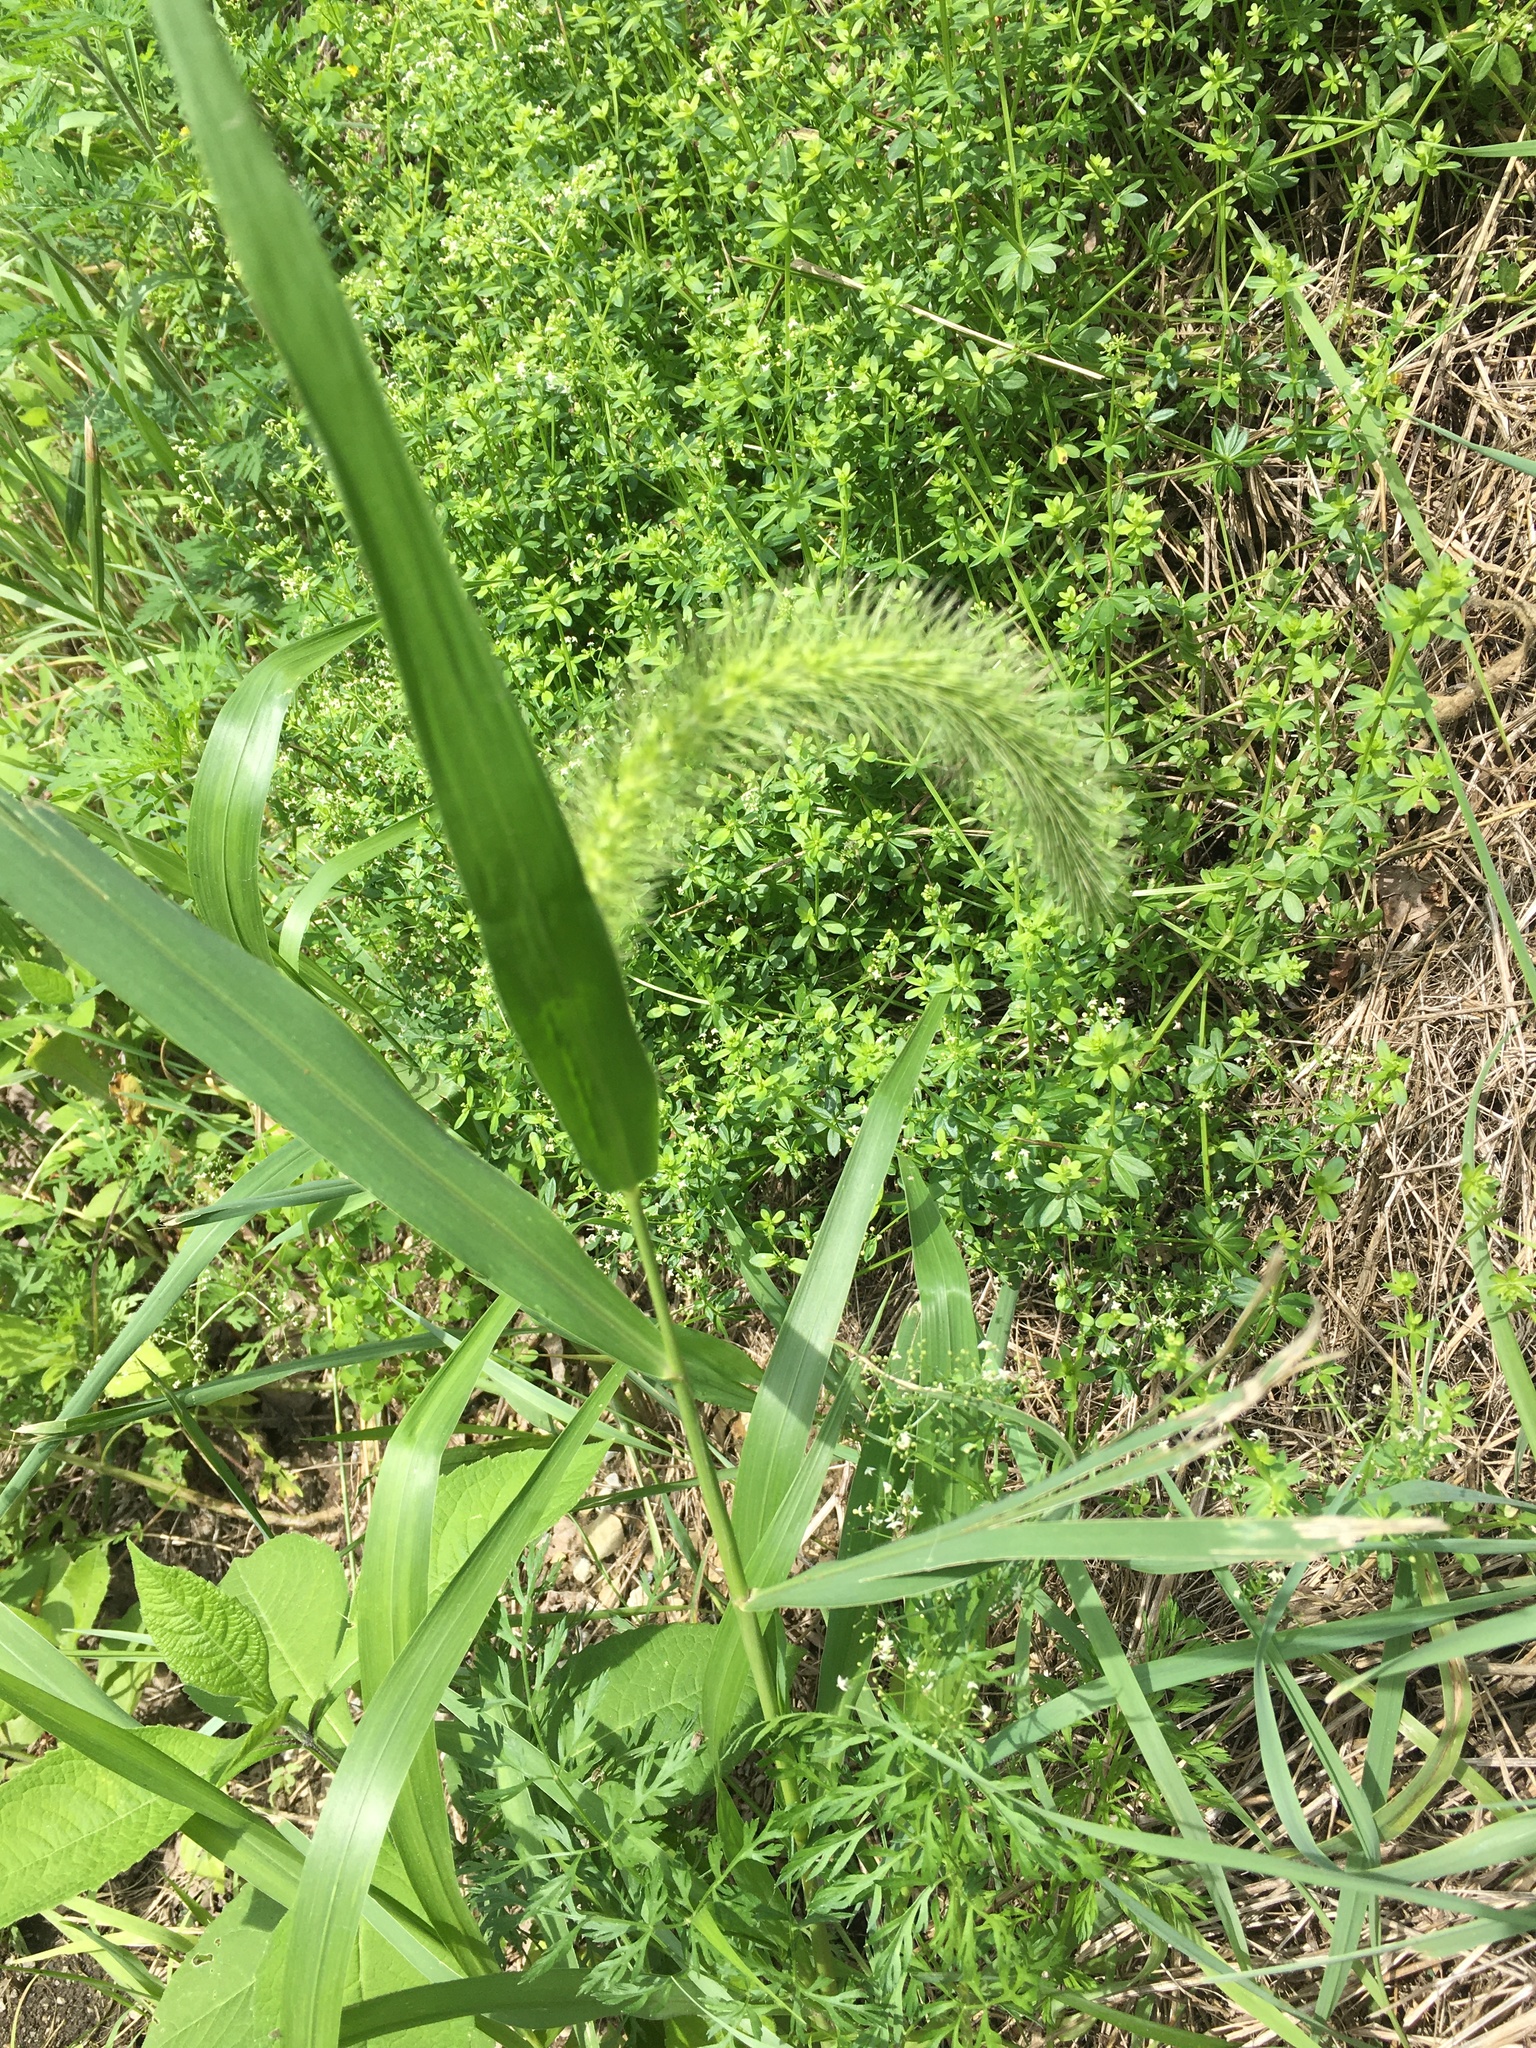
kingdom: Plantae
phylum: Tracheophyta
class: Liliopsida
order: Poales
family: Poaceae
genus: Setaria
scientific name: Setaria faberi
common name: Nodding bristle-grass
